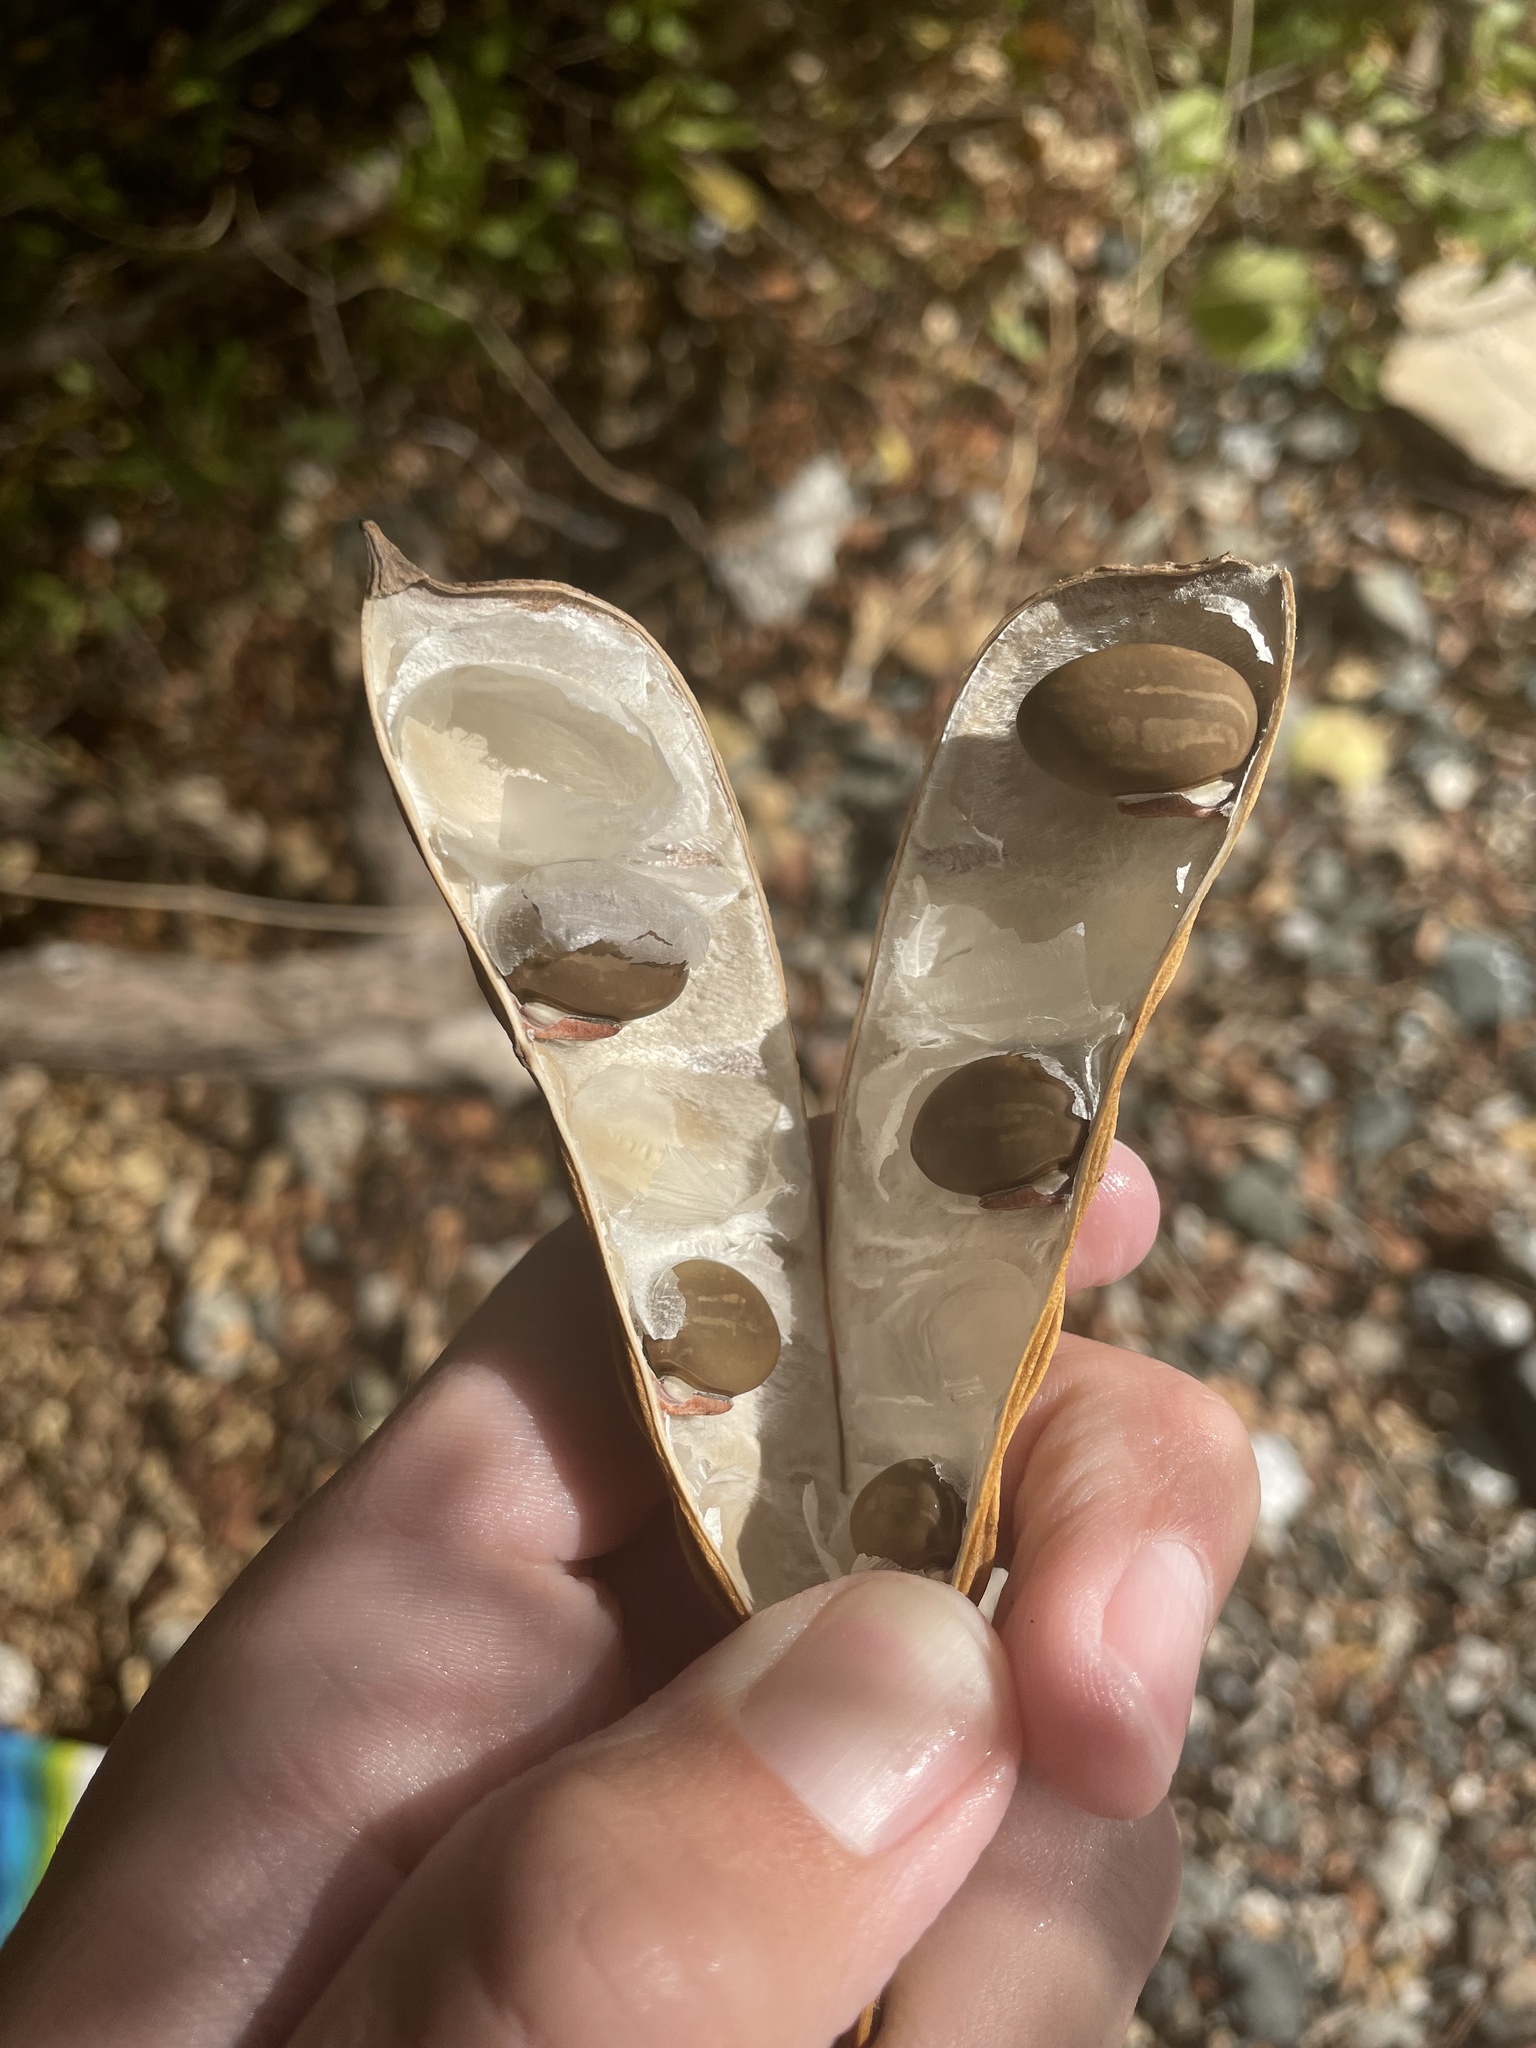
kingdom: Plantae
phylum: Tracheophyta
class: Magnoliopsida
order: Fabales
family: Fabaceae
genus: Canavalia
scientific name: Canavalia rosea
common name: Beach-bean
